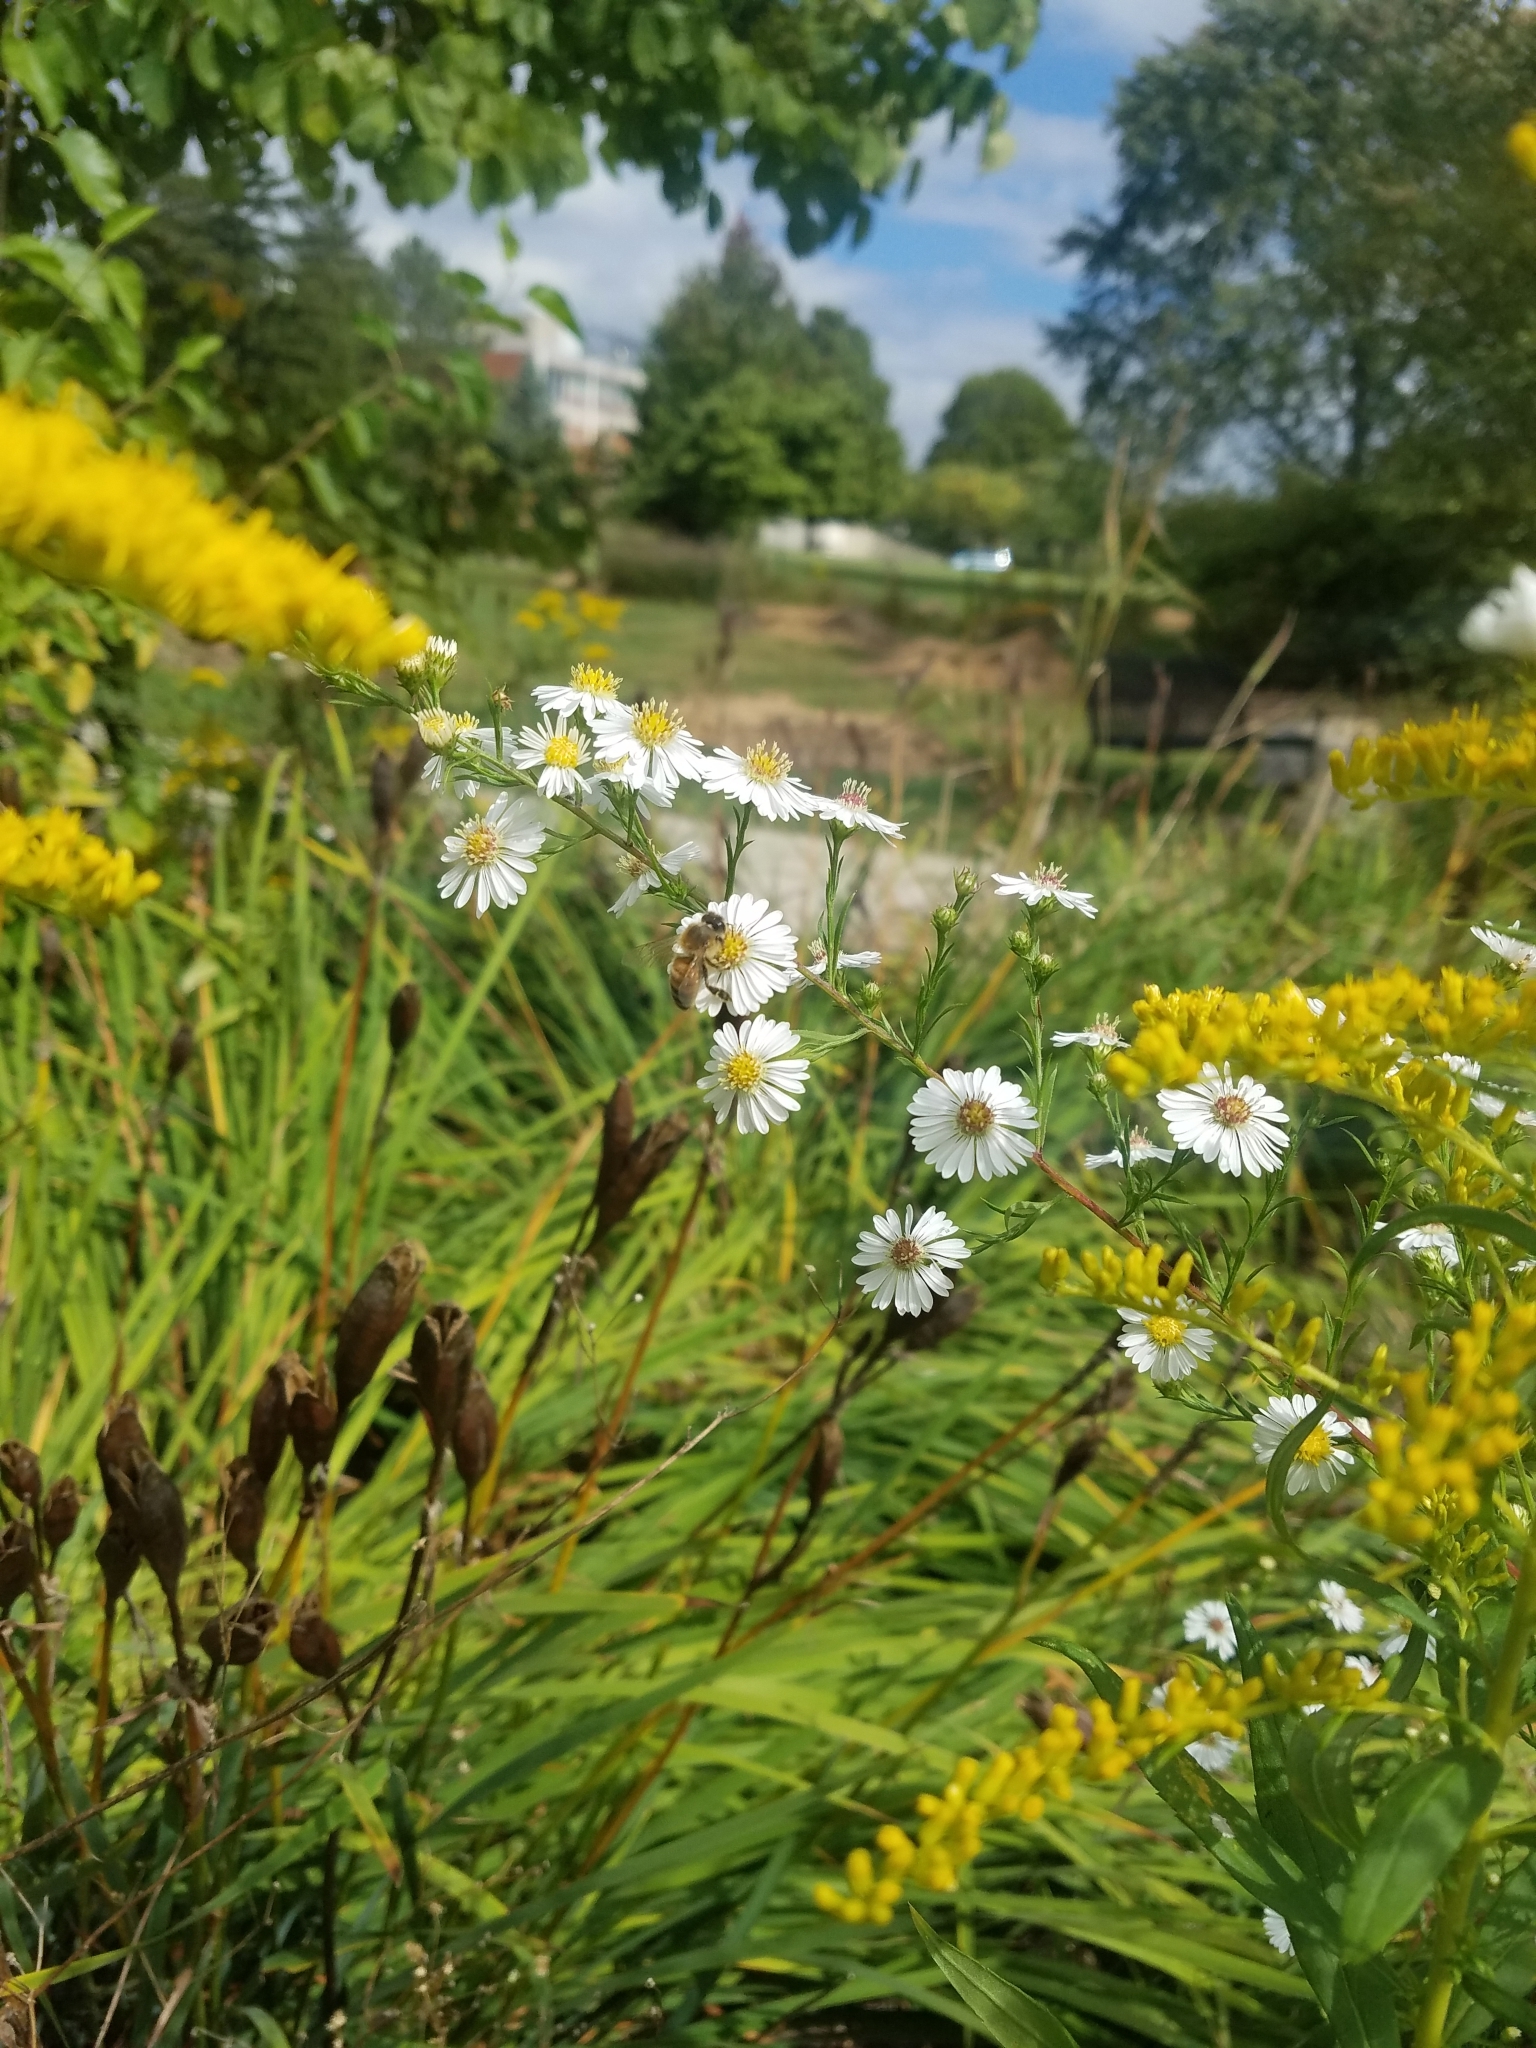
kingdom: Animalia
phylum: Arthropoda
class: Insecta
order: Hymenoptera
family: Apidae
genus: Apis
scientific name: Apis mellifera
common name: Honey bee
